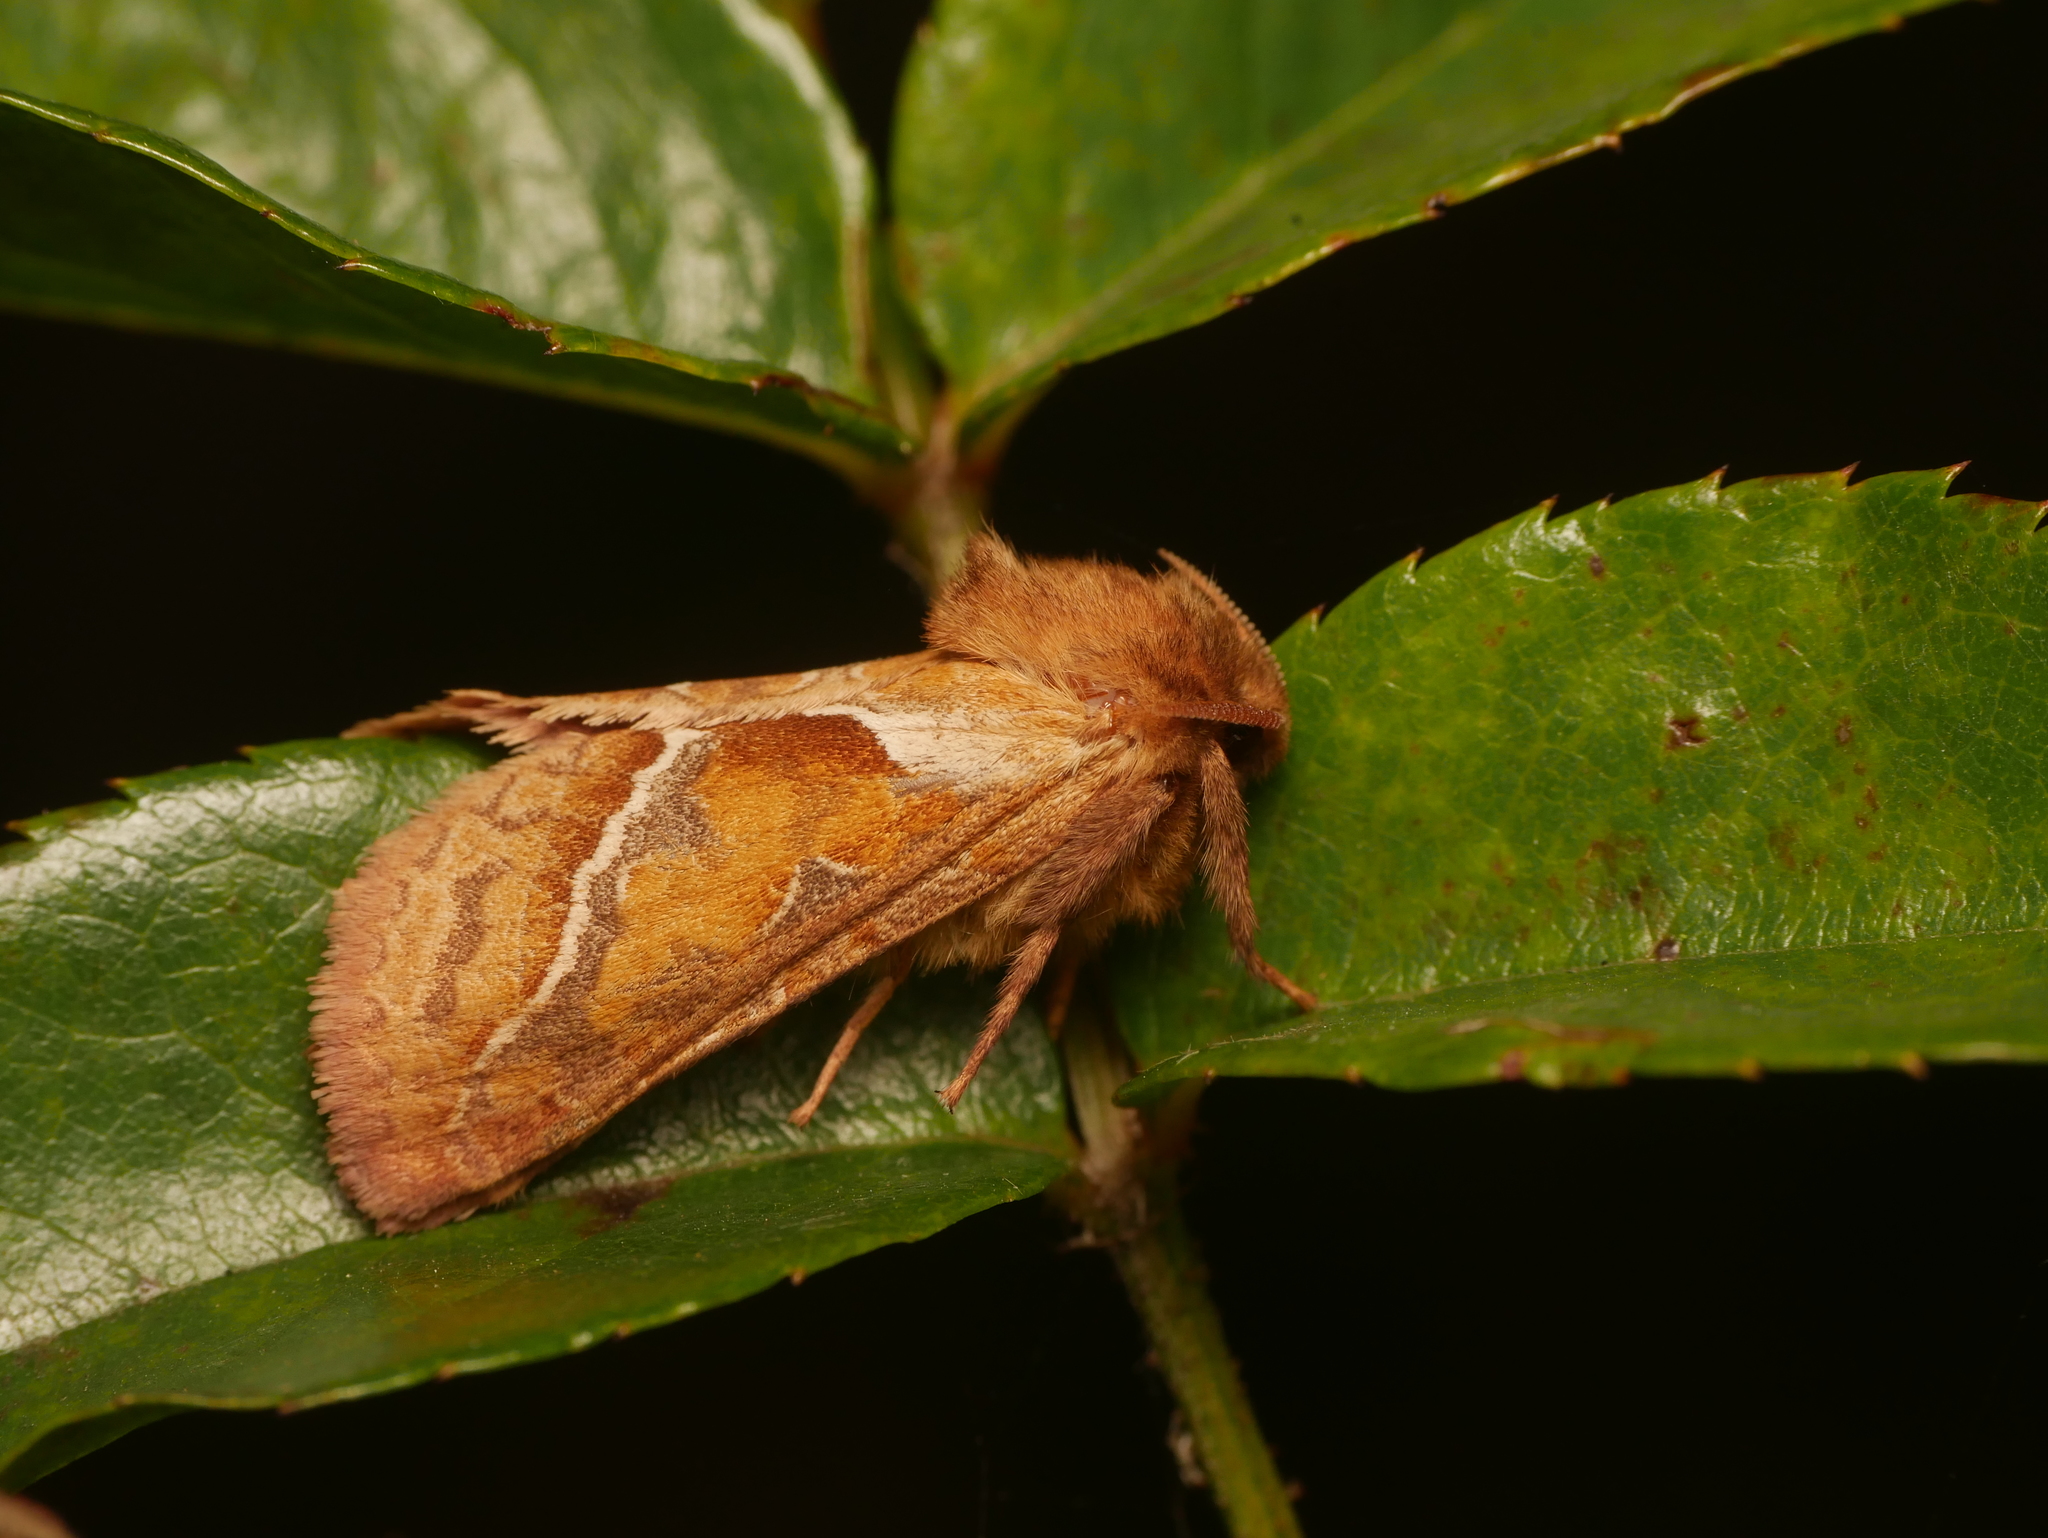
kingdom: Animalia
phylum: Arthropoda
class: Insecta
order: Lepidoptera
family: Hepialidae
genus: Triodia
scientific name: Triodia sylvina
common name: Orange swift
